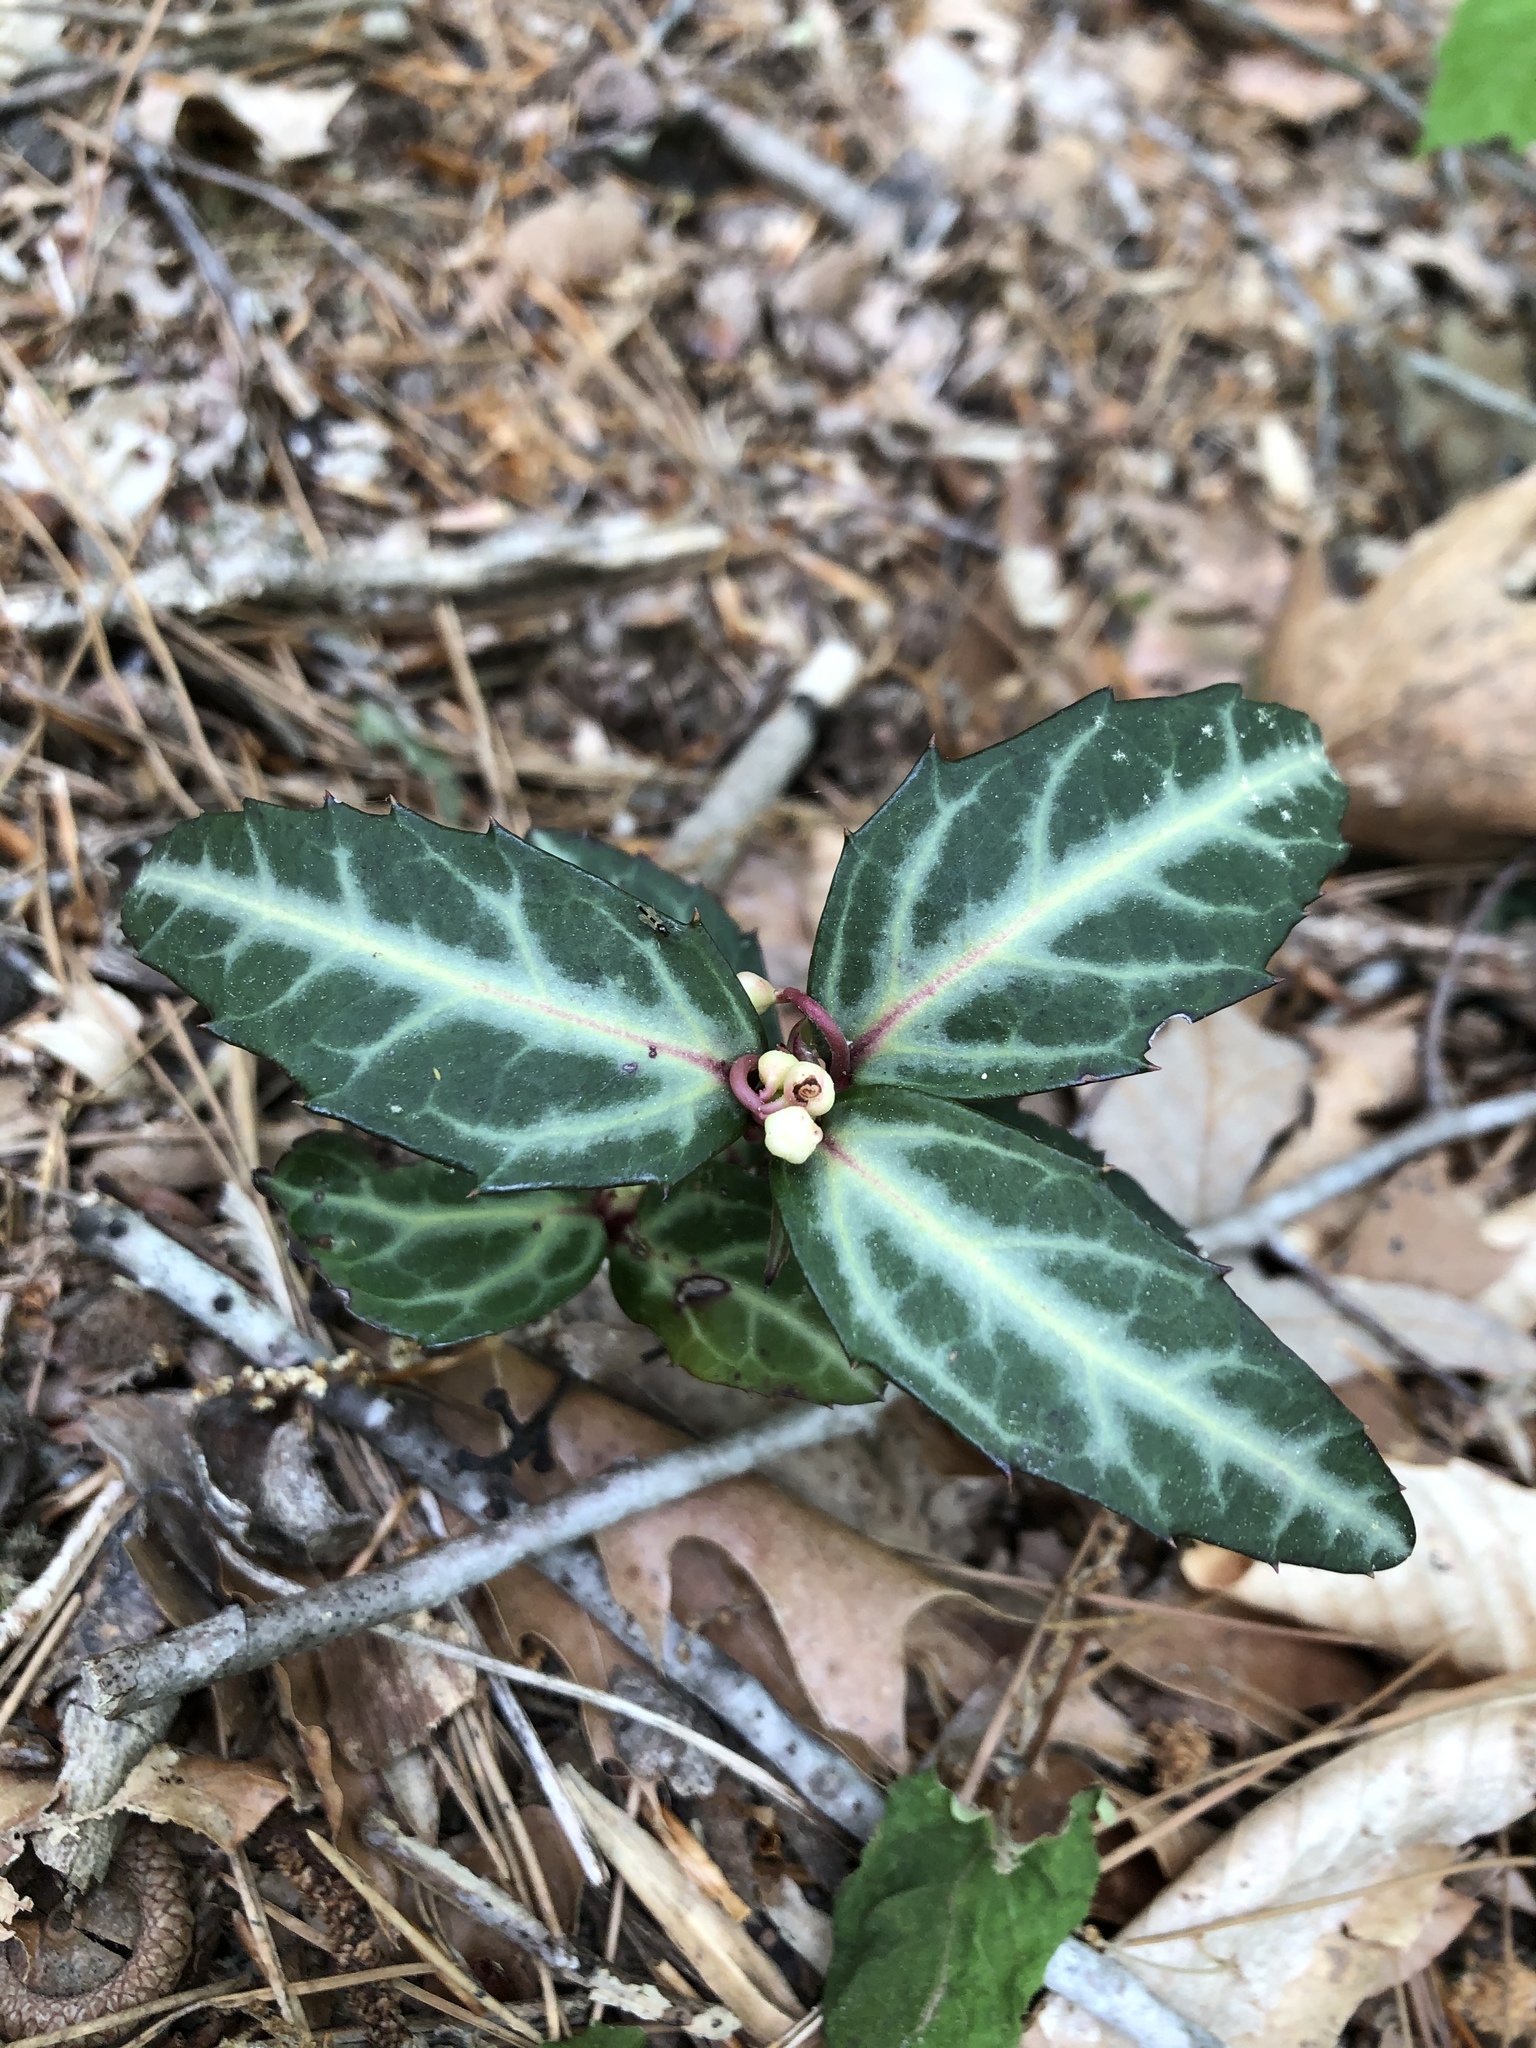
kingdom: Plantae
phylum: Tracheophyta
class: Magnoliopsida
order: Ericales
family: Ericaceae
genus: Chimaphila
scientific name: Chimaphila maculata
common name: Spotted pipsissewa
